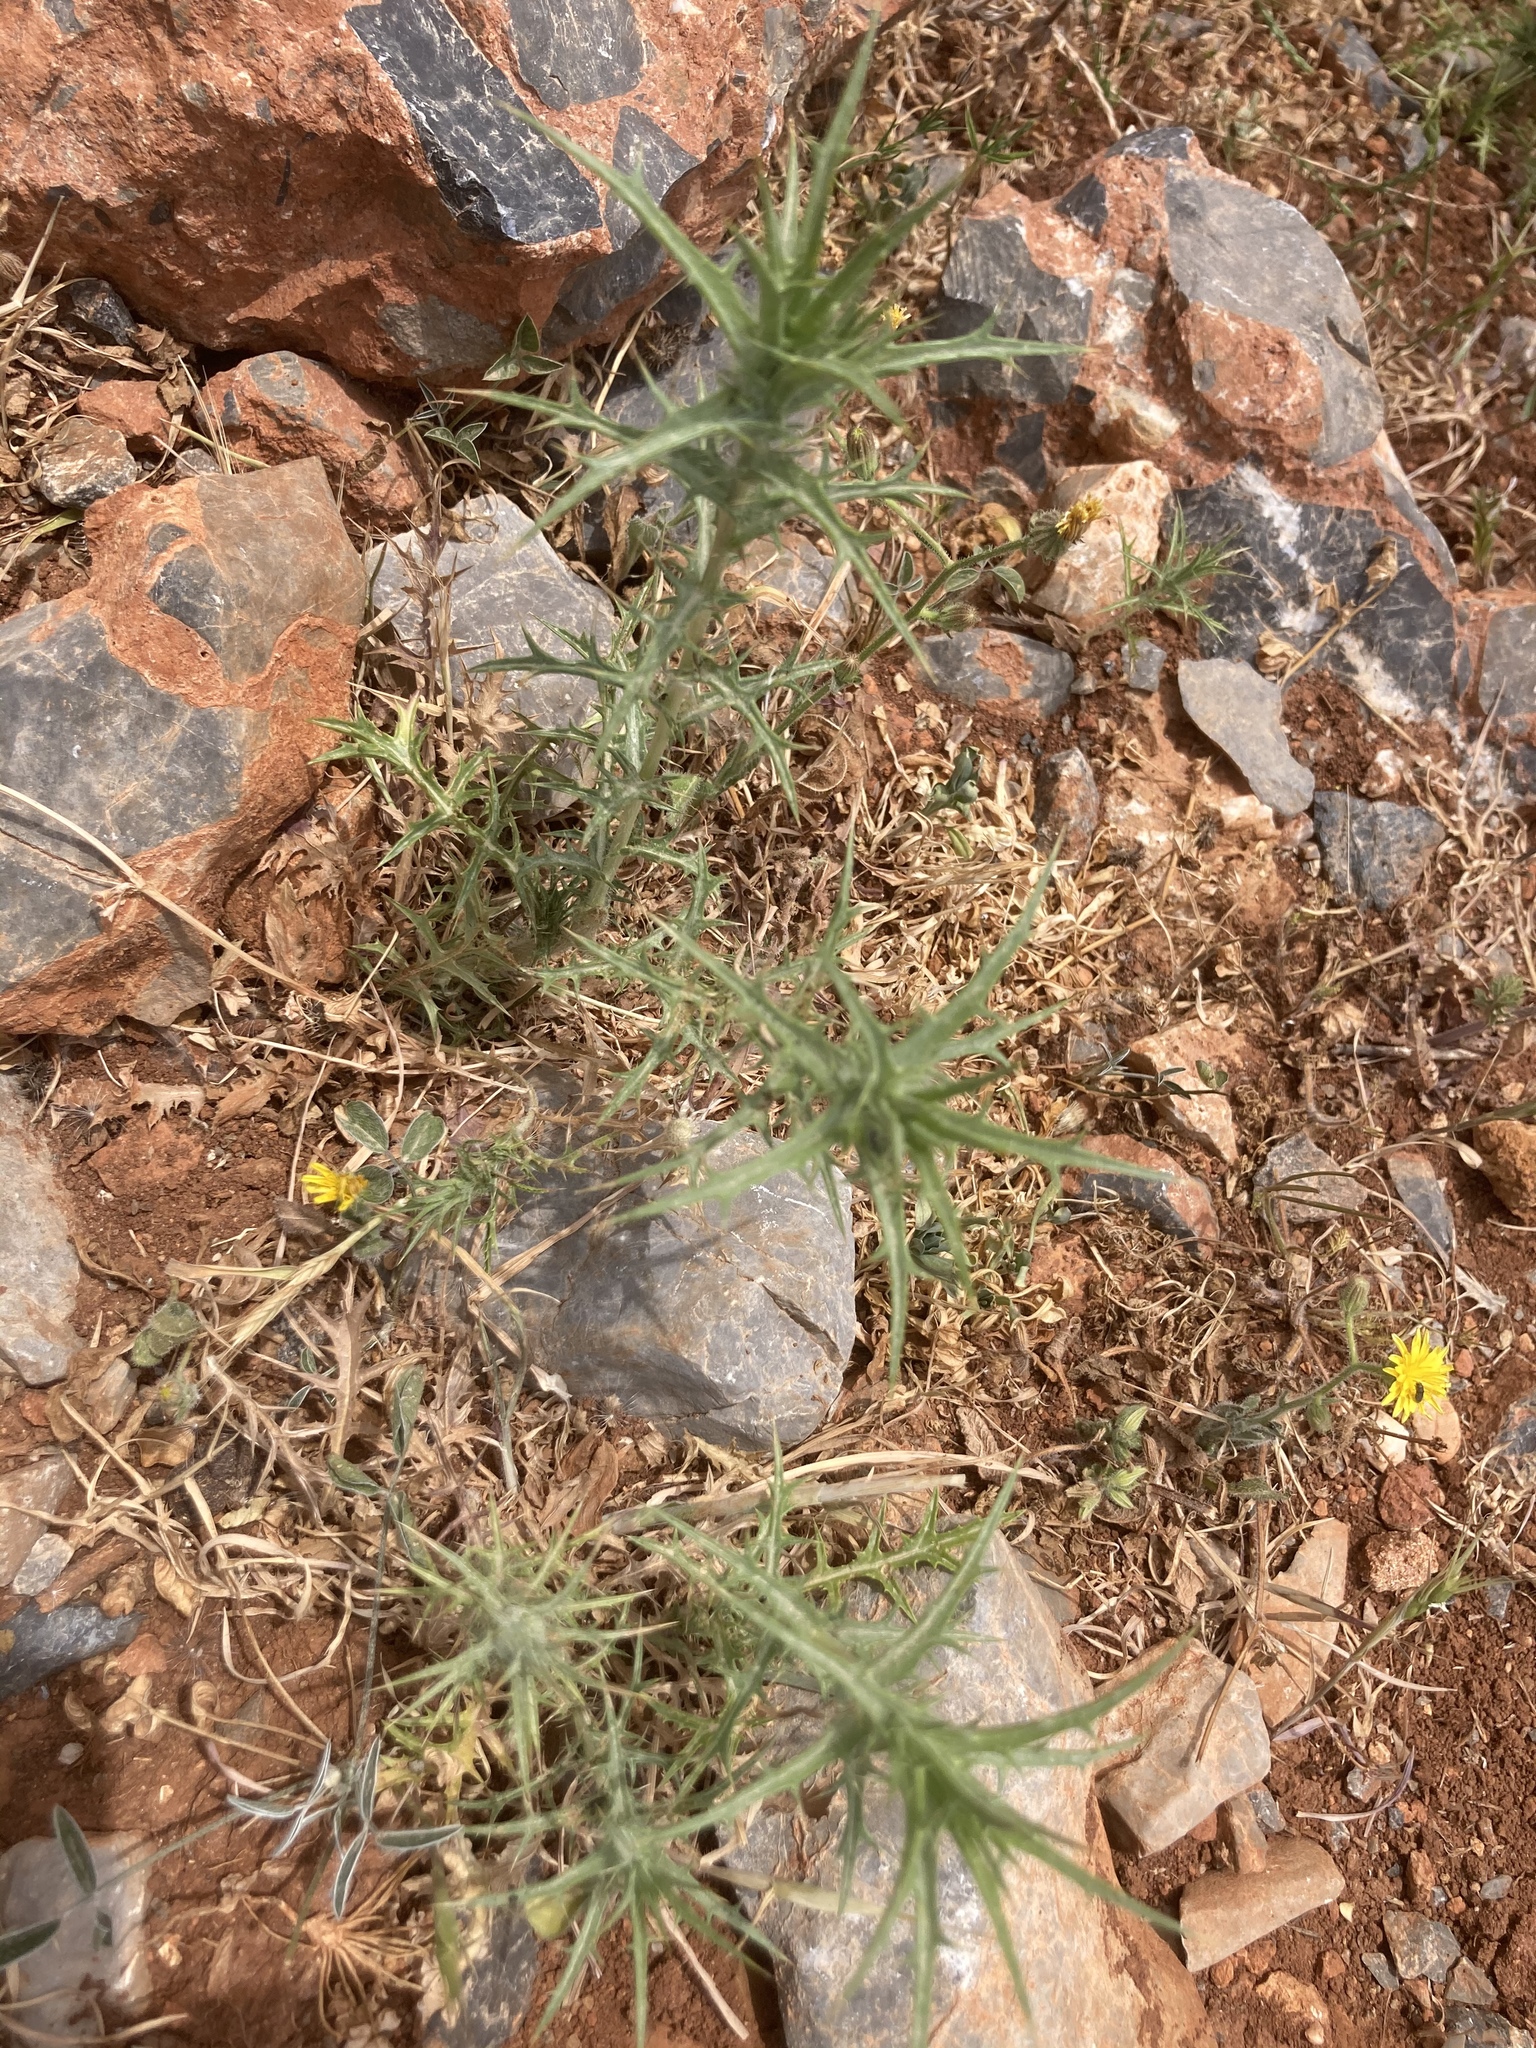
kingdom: Plantae
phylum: Tracheophyta
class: Magnoliopsida
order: Asterales
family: Asteraceae
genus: Carthamus
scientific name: Carthamus
